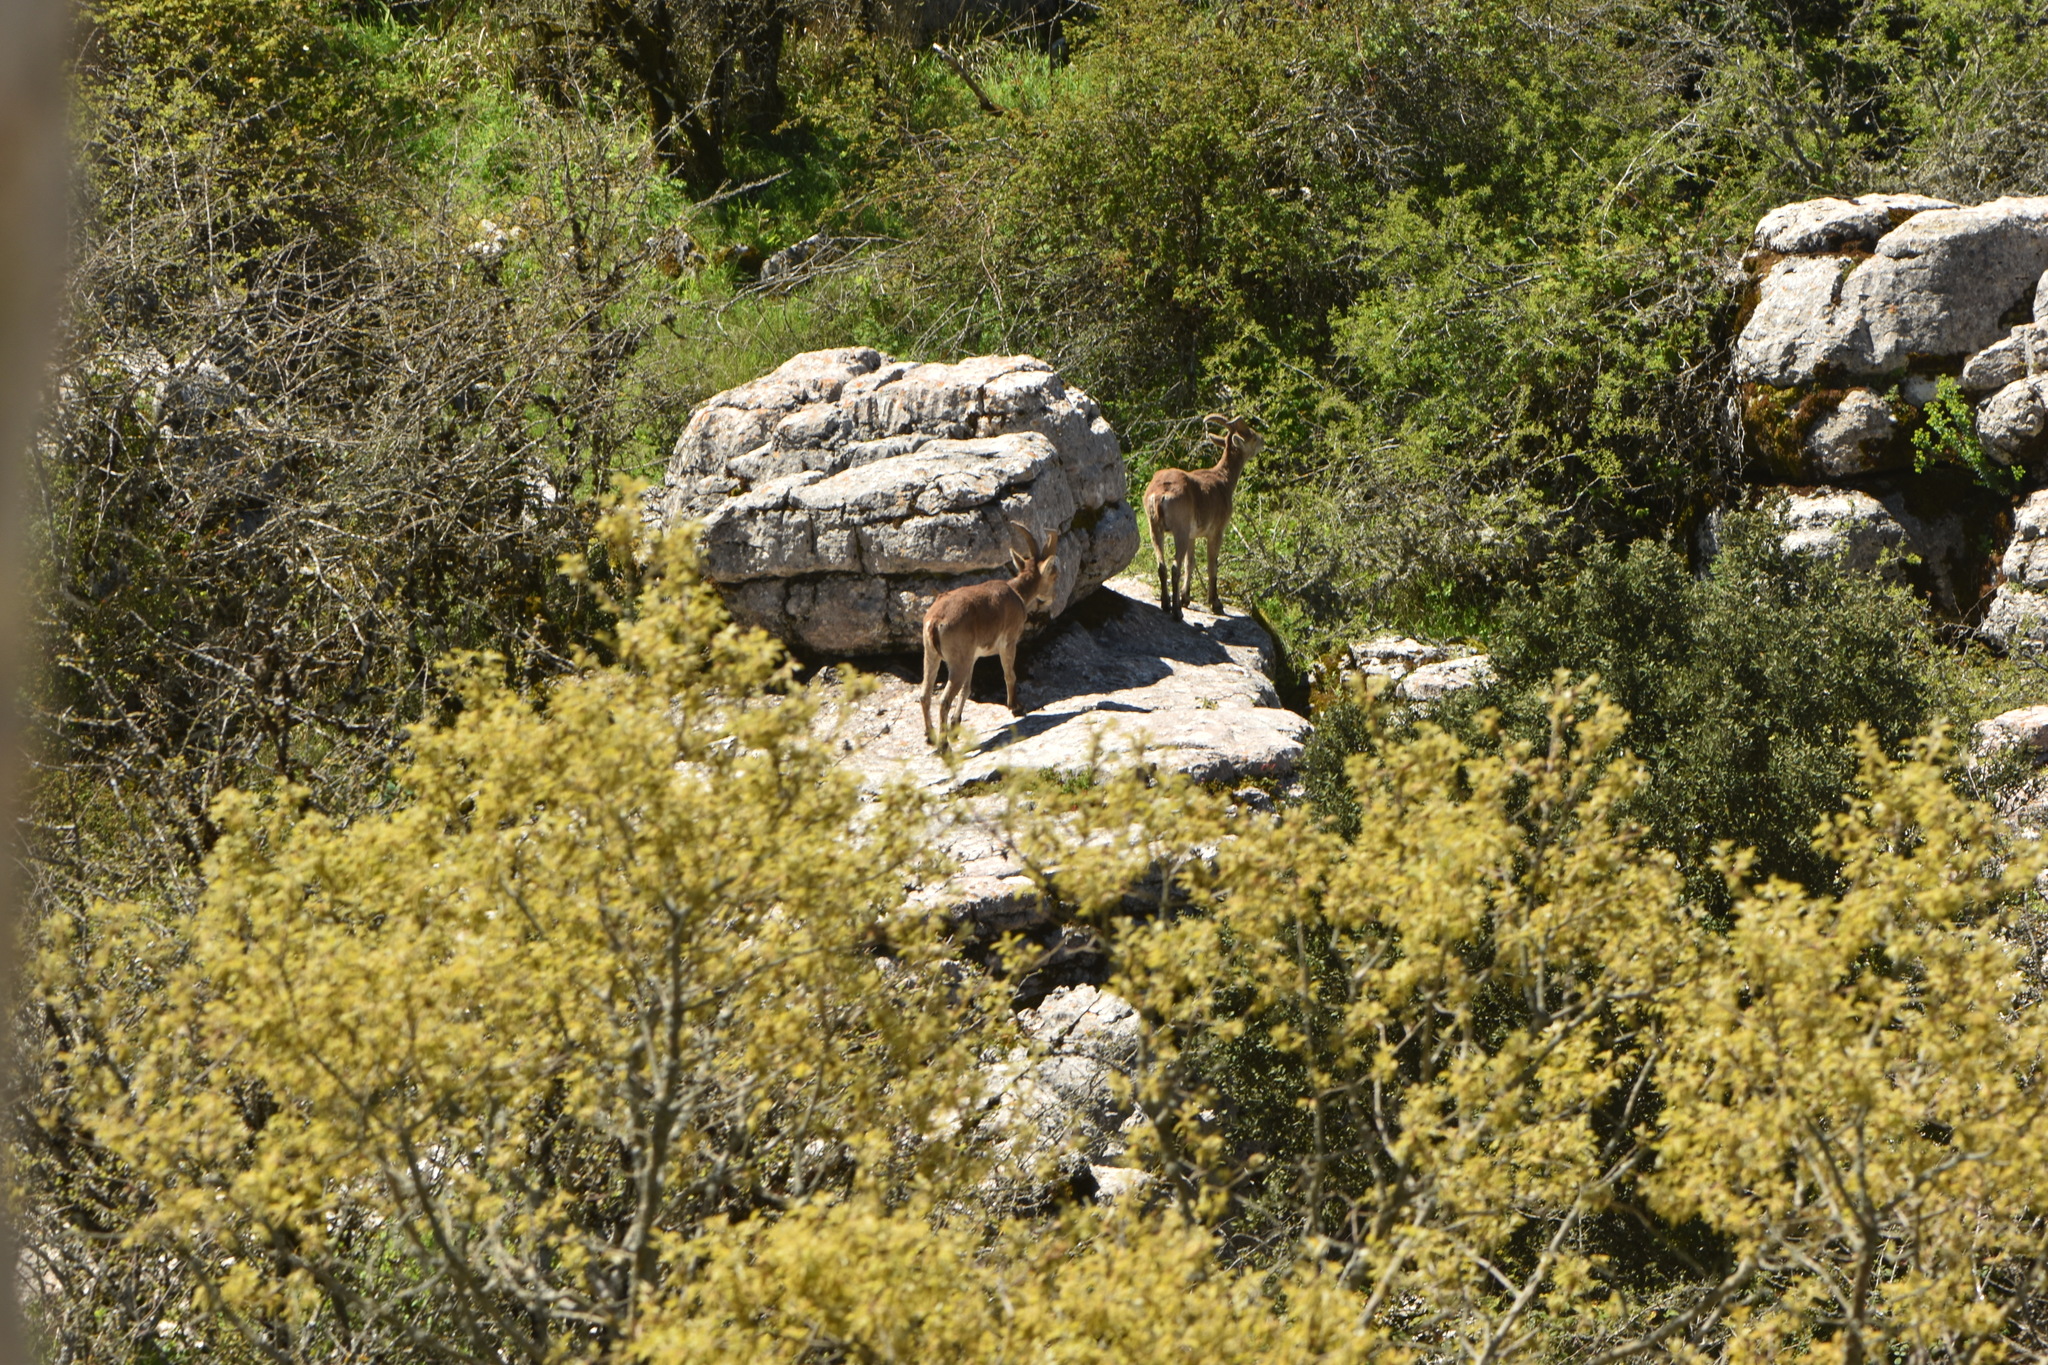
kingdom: Animalia
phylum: Chordata
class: Mammalia
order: Artiodactyla
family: Bovidae
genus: Capra
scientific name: Capra pyrenaica
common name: Spanish ibex
